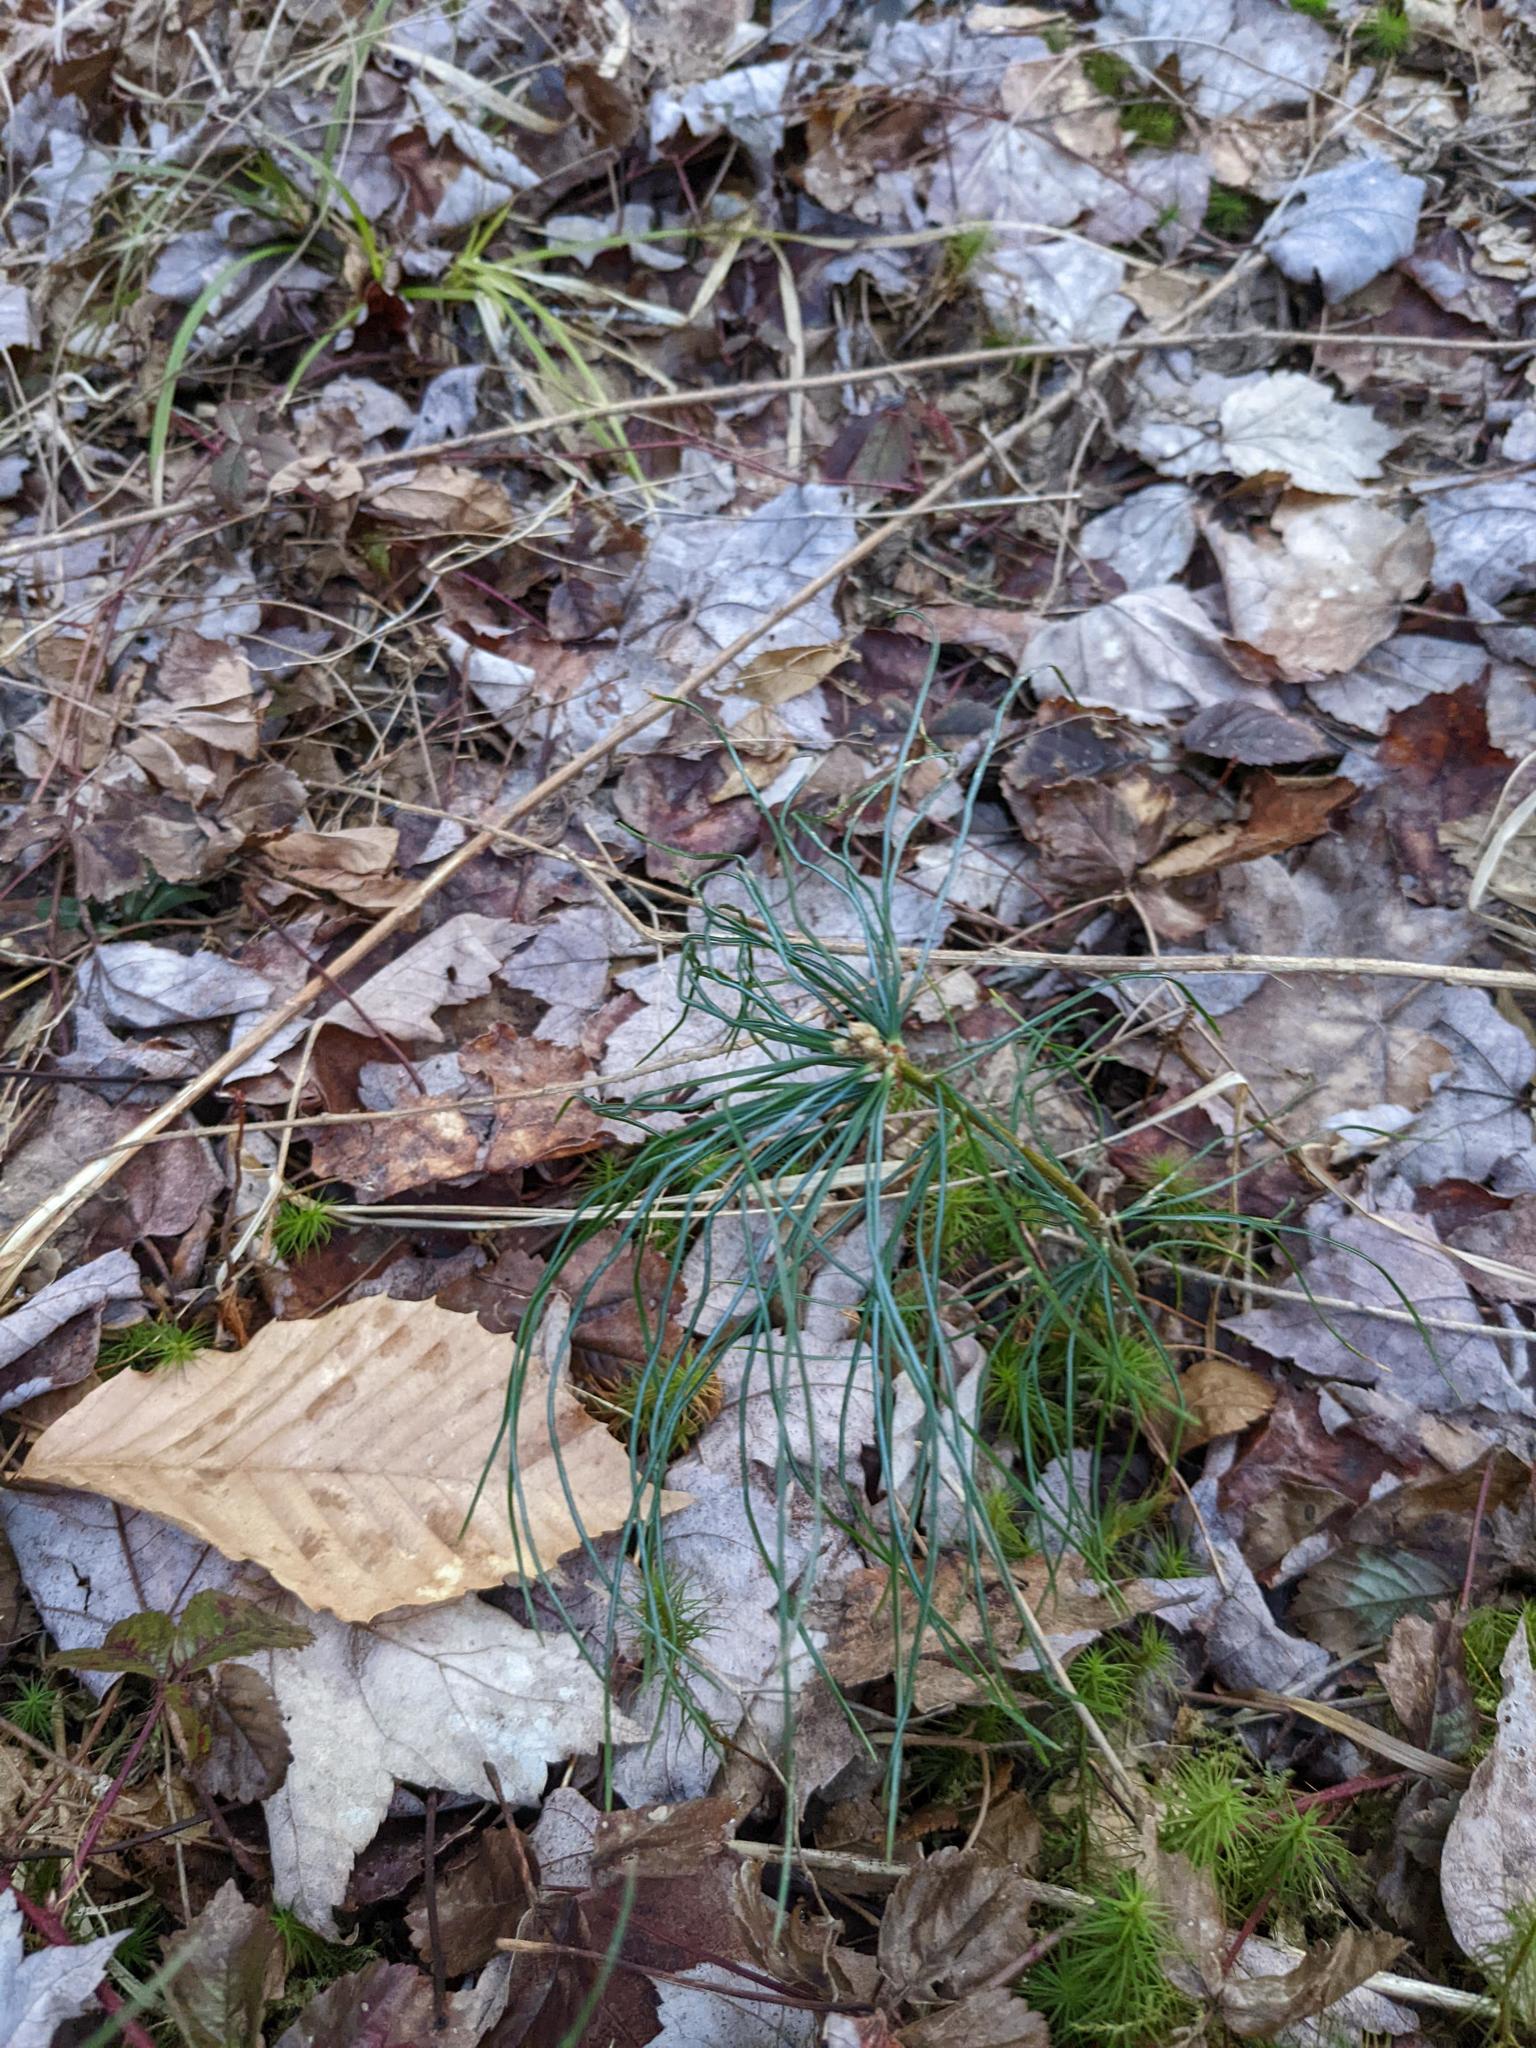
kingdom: Plantae
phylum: Tracheophyta
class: Pinopsida
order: Pinales
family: Pinaceae
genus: Pinus
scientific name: Pinus strobus
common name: Weymouth pine
